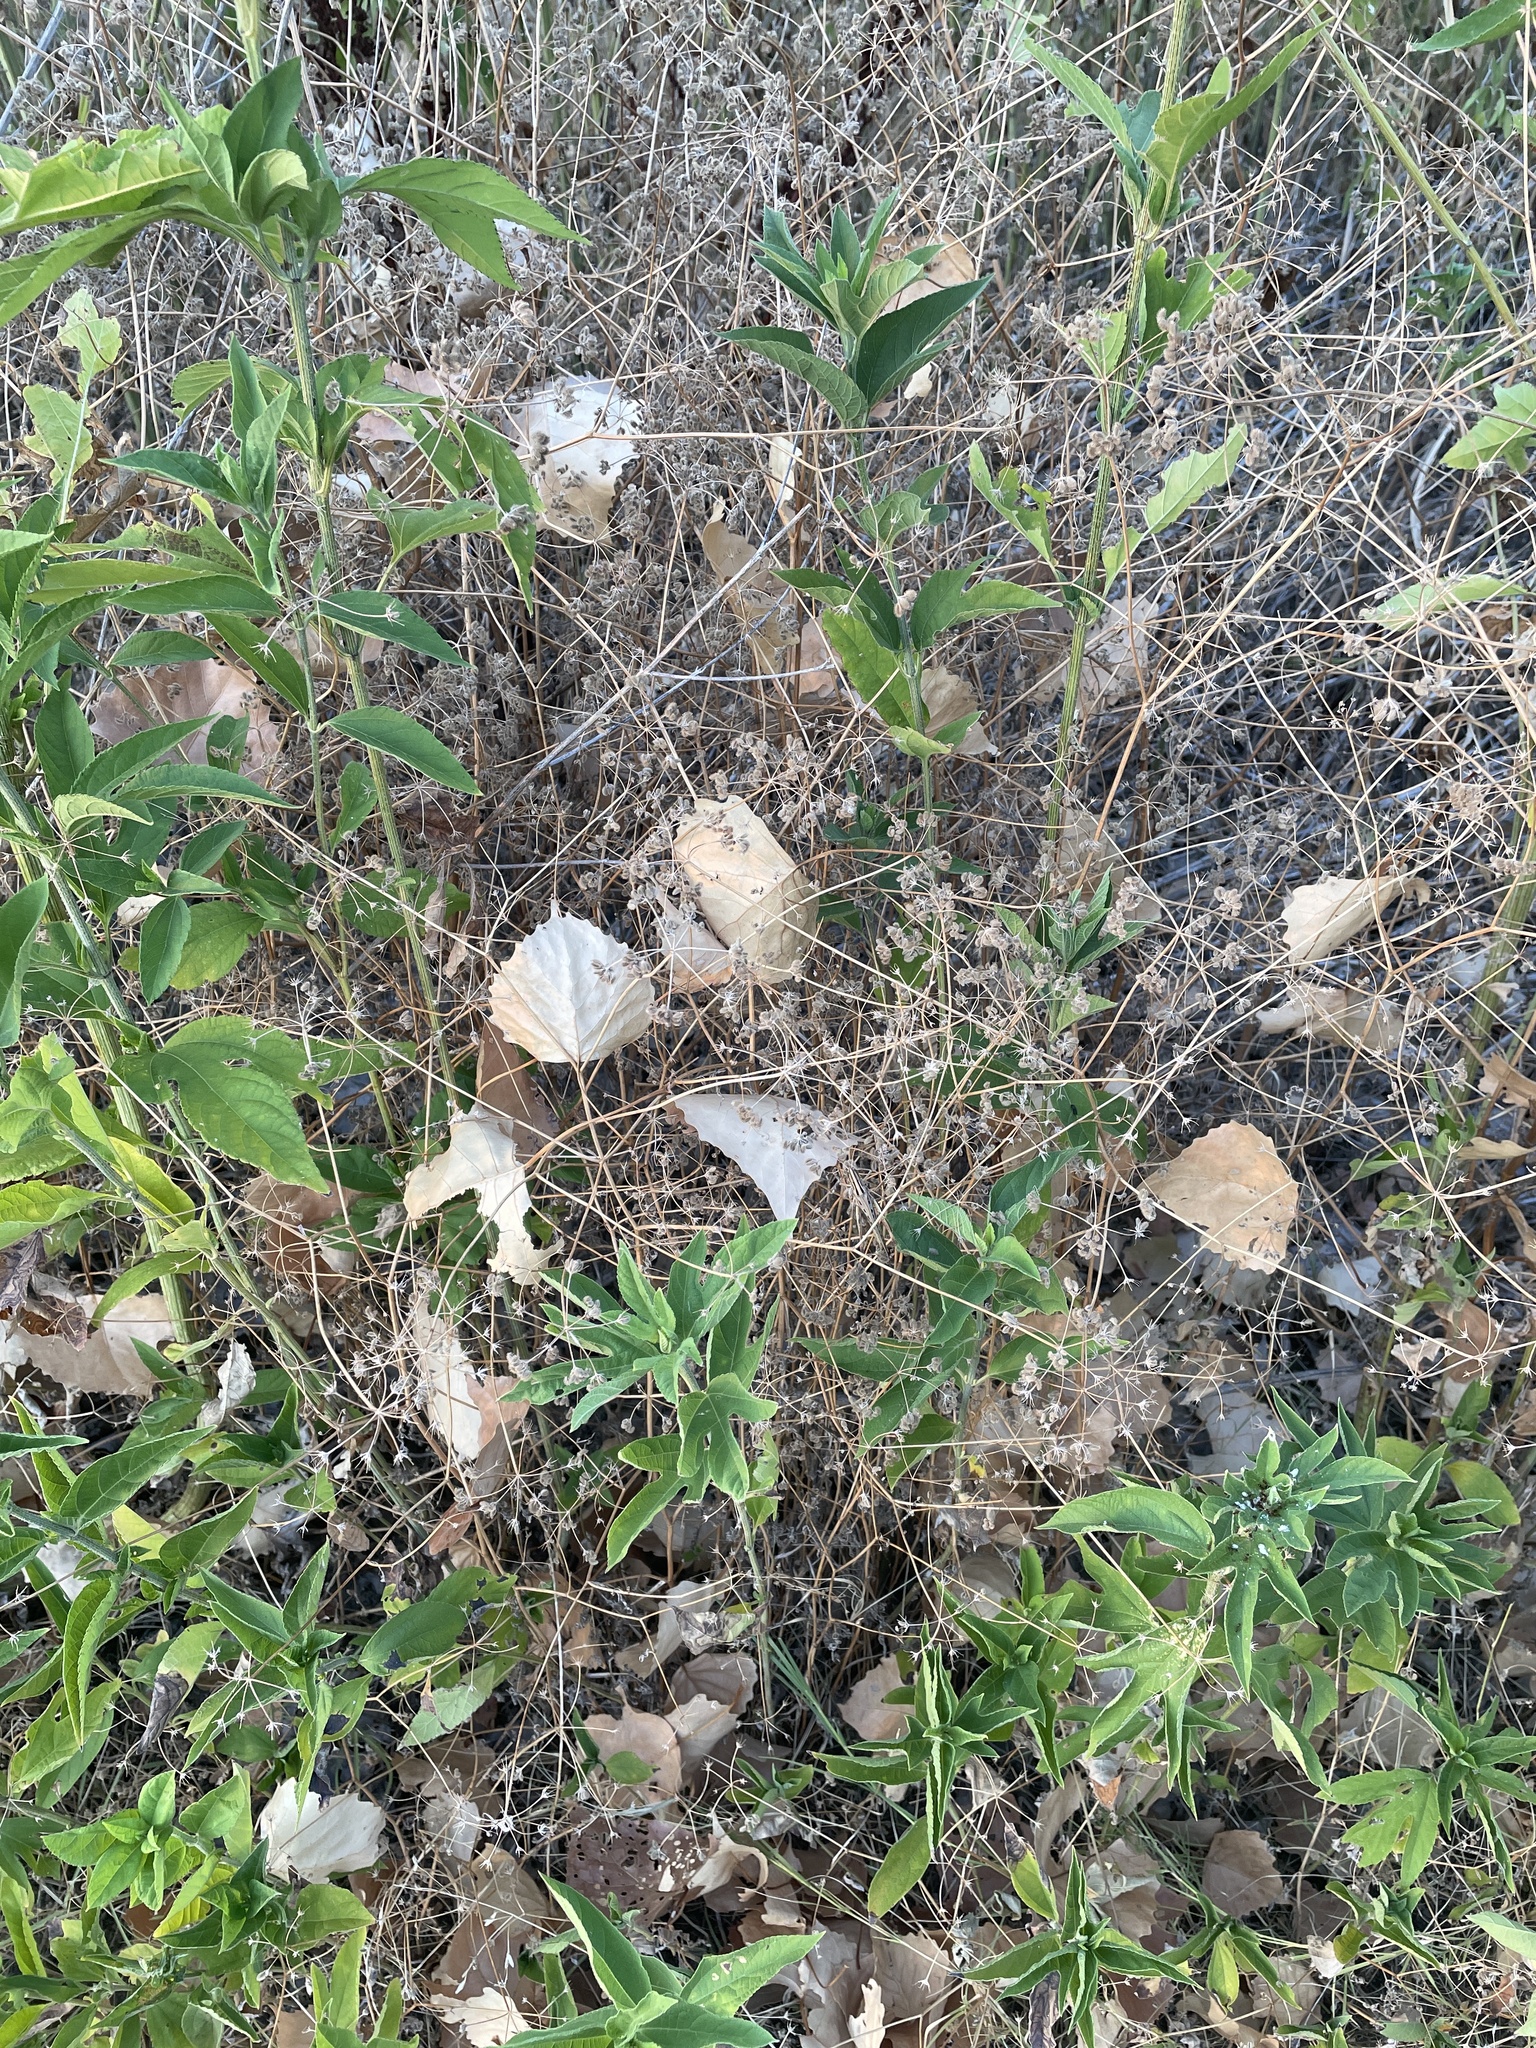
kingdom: Plantae
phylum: Tracheophyta
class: Magnoliopsida
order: Apiales
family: Apiaceae
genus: Torilis
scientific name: Torilis arvensis
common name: Spreading hedge-parsley
